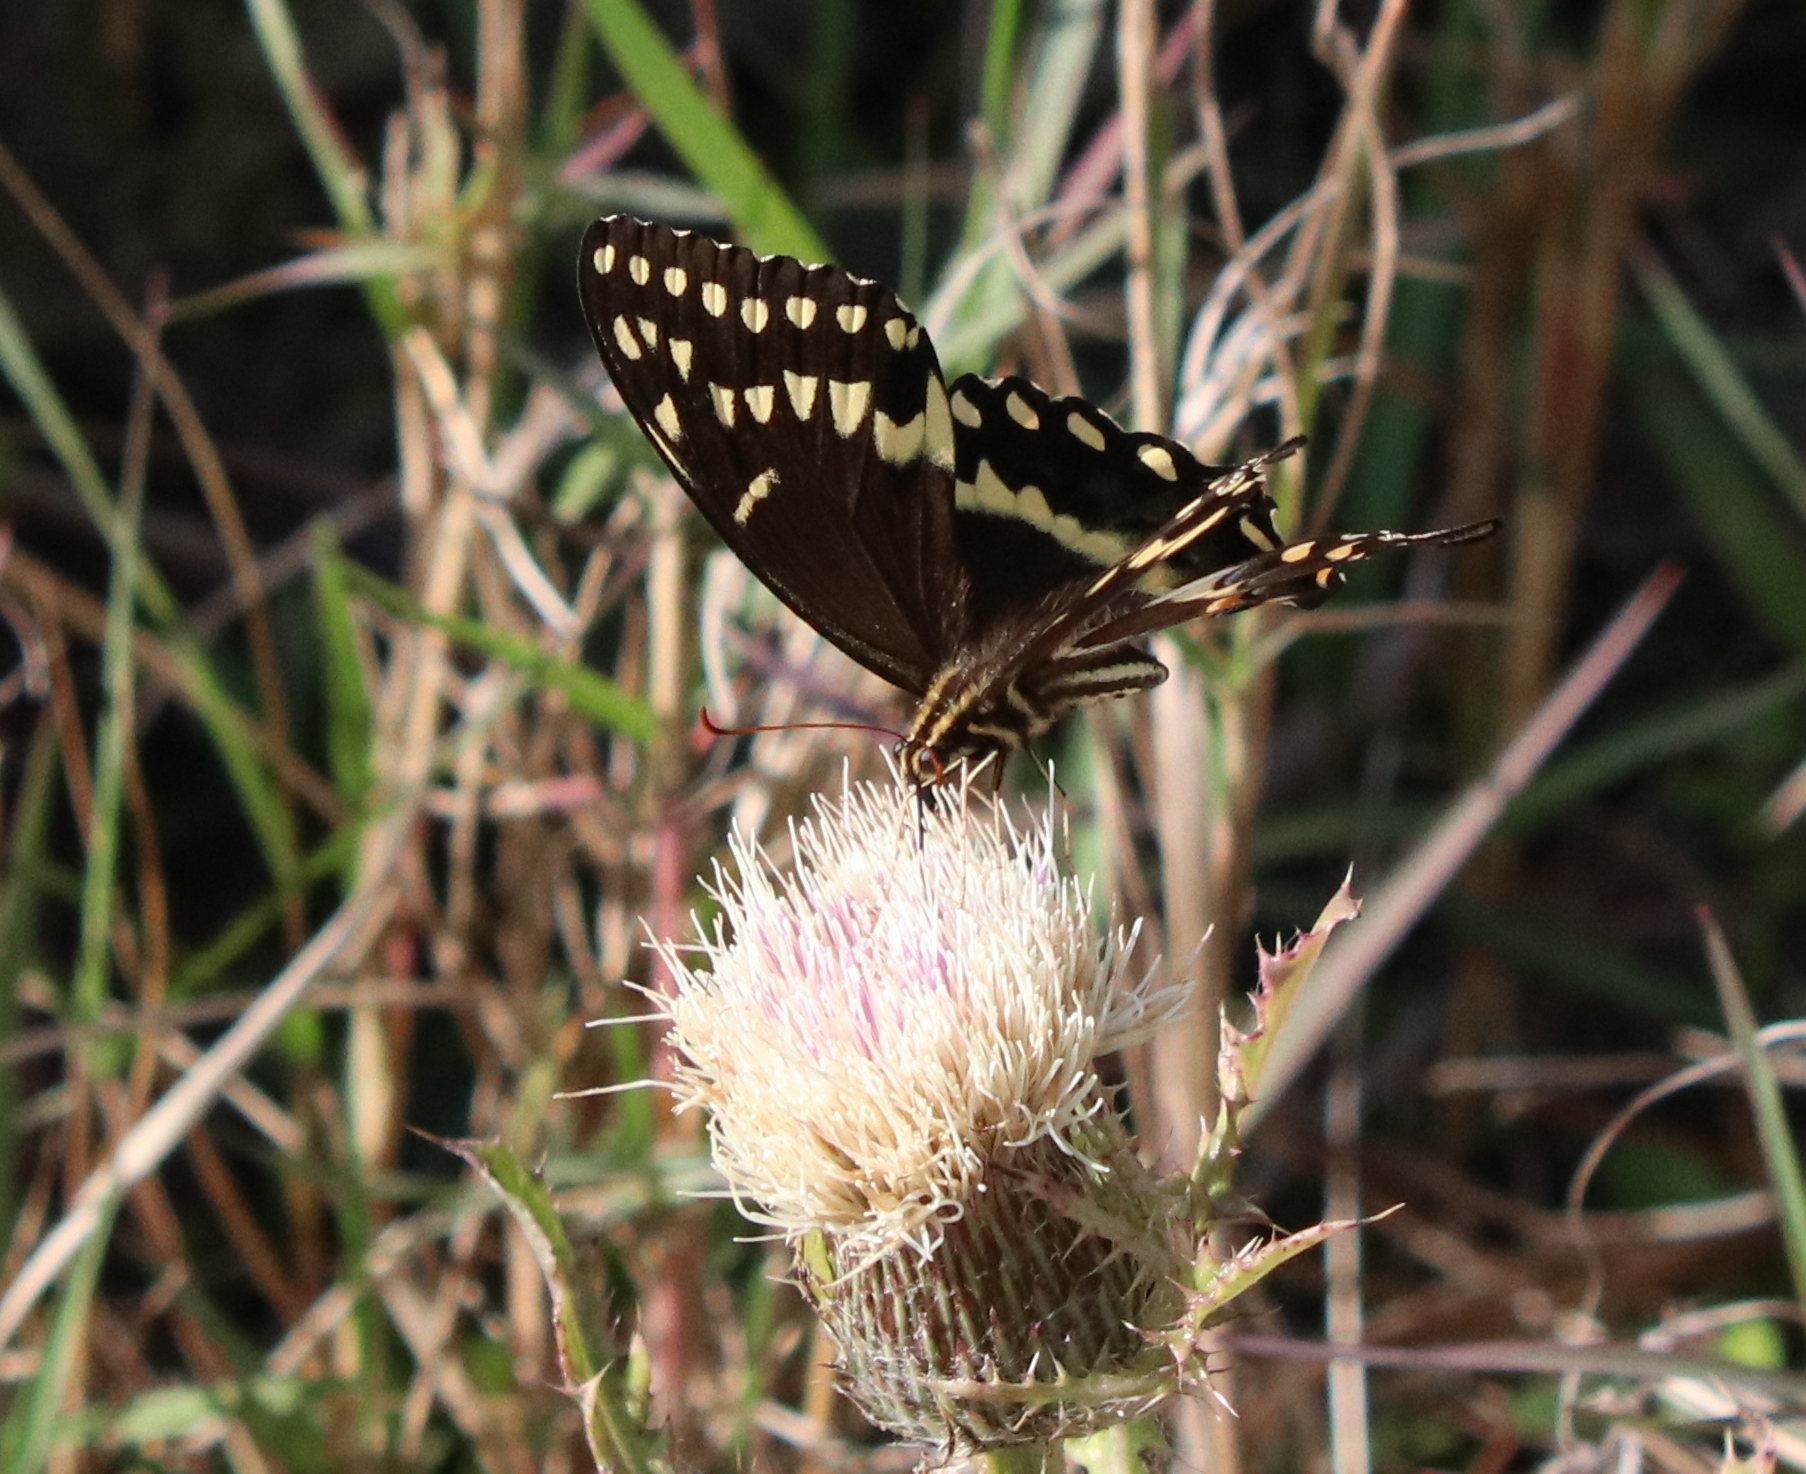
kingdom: Animalia
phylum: Arthropoda
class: Insecta
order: Lepidoptera
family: Papilionidae
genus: Papilio
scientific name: Papilio palamedes
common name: Palamedes swallowtail
